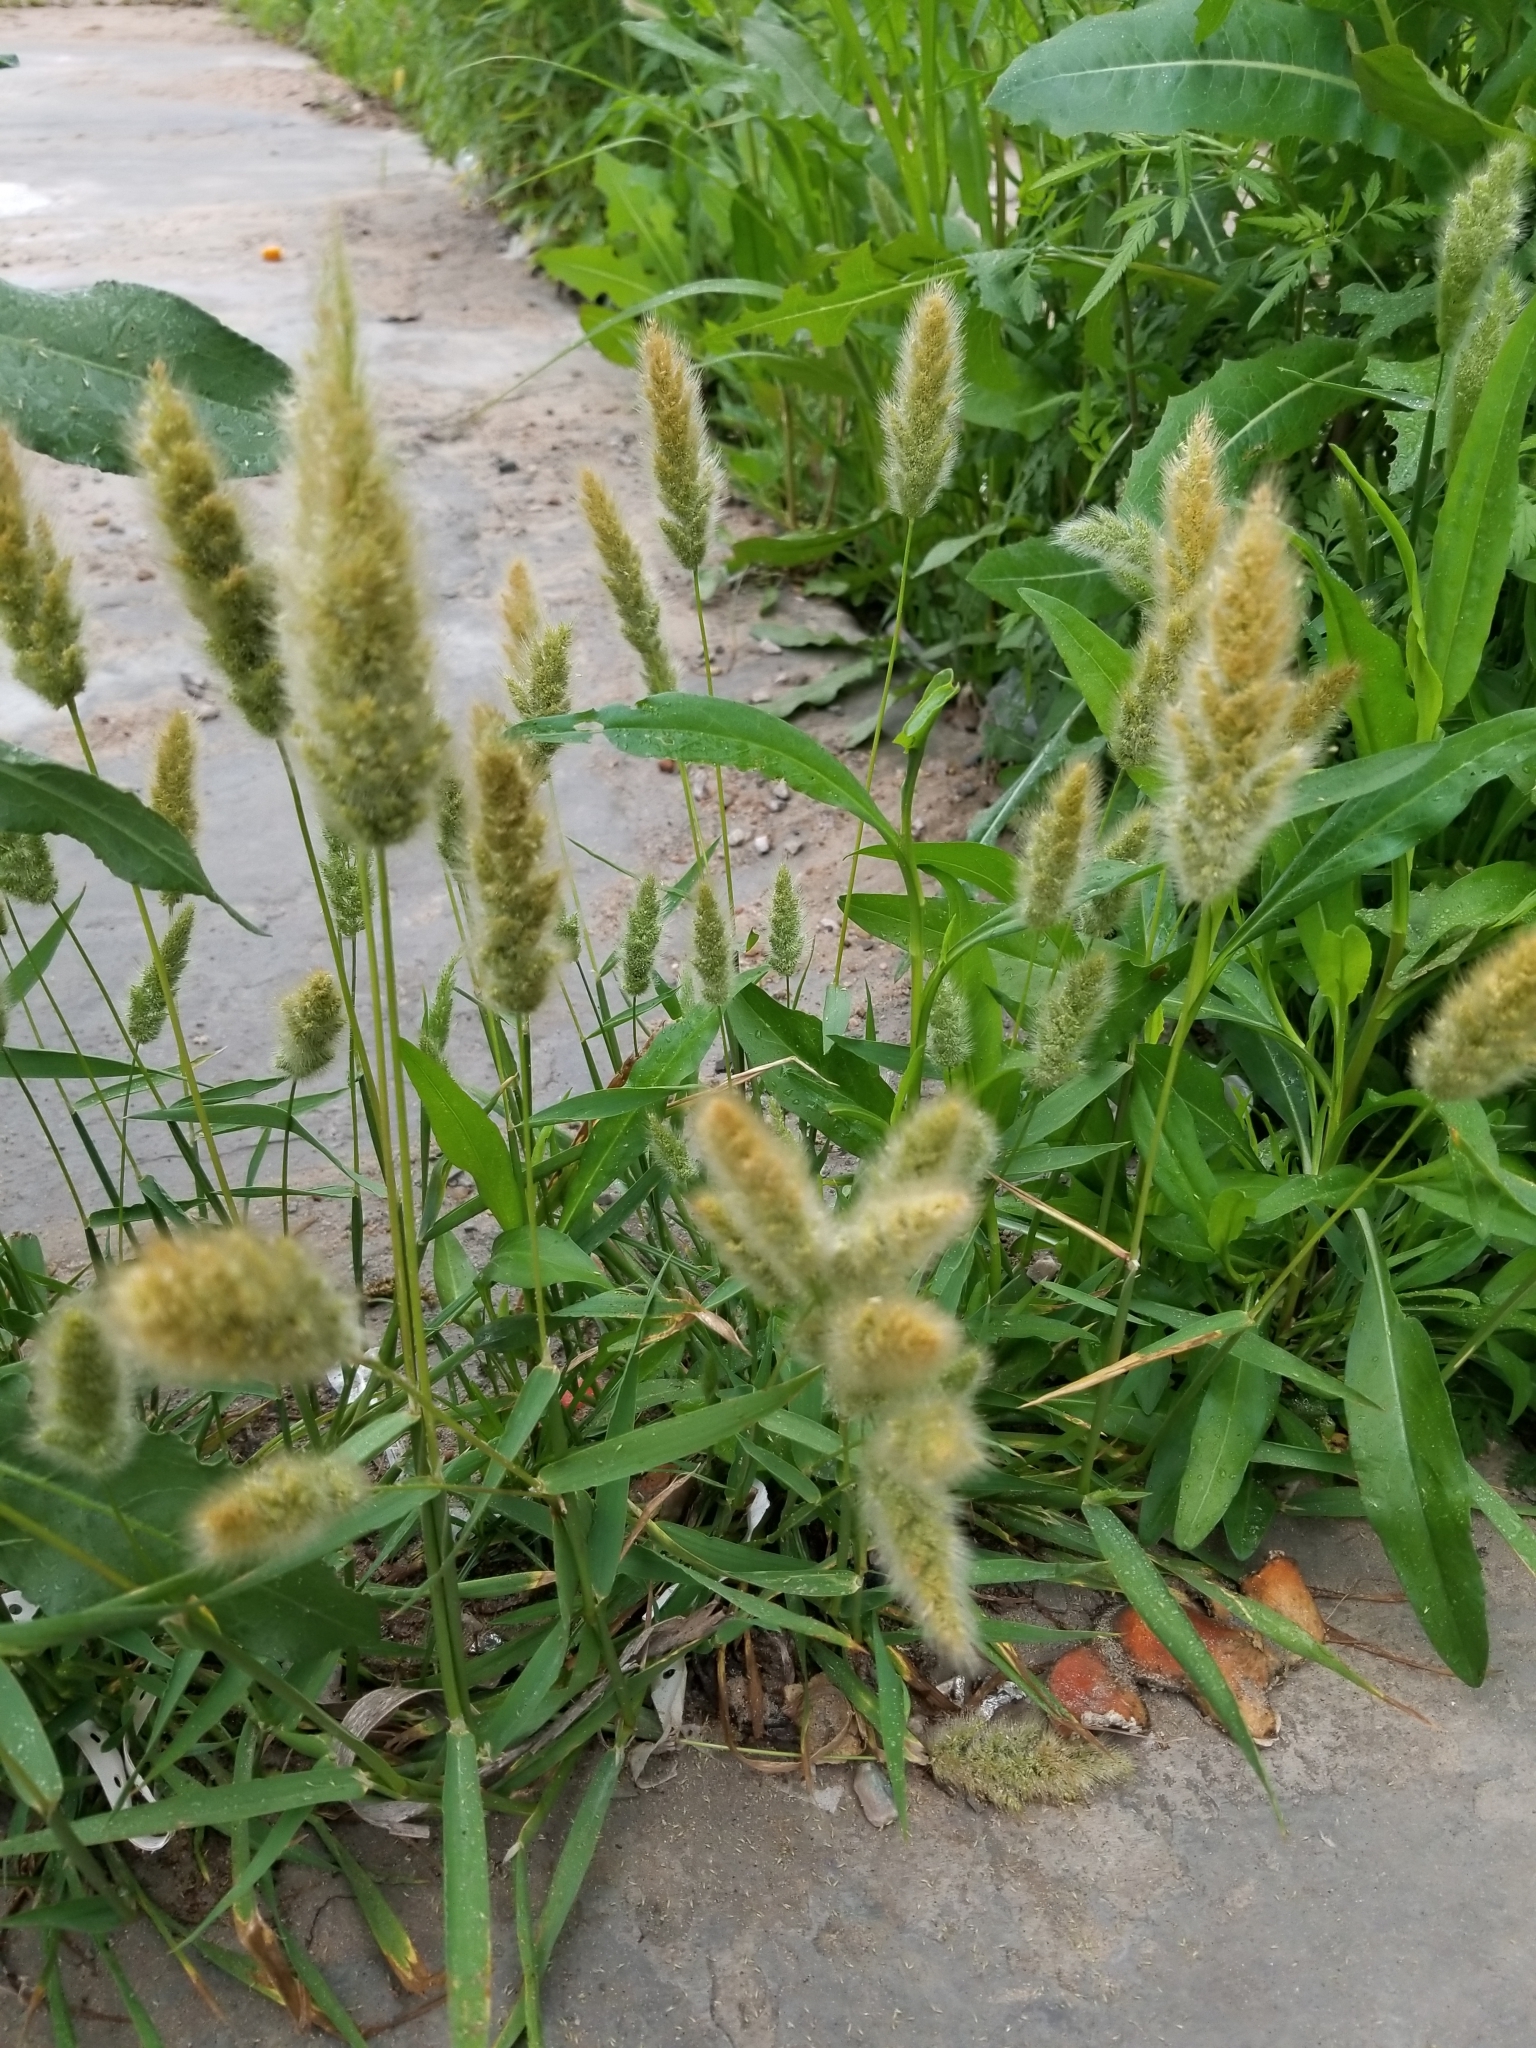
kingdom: Plantae
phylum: Tracheophyta
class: Liliopsida
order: Poales
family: Poaceae
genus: Polypogon
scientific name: Polypogon monspeliensis
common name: Annual rabbitsfoot grass
